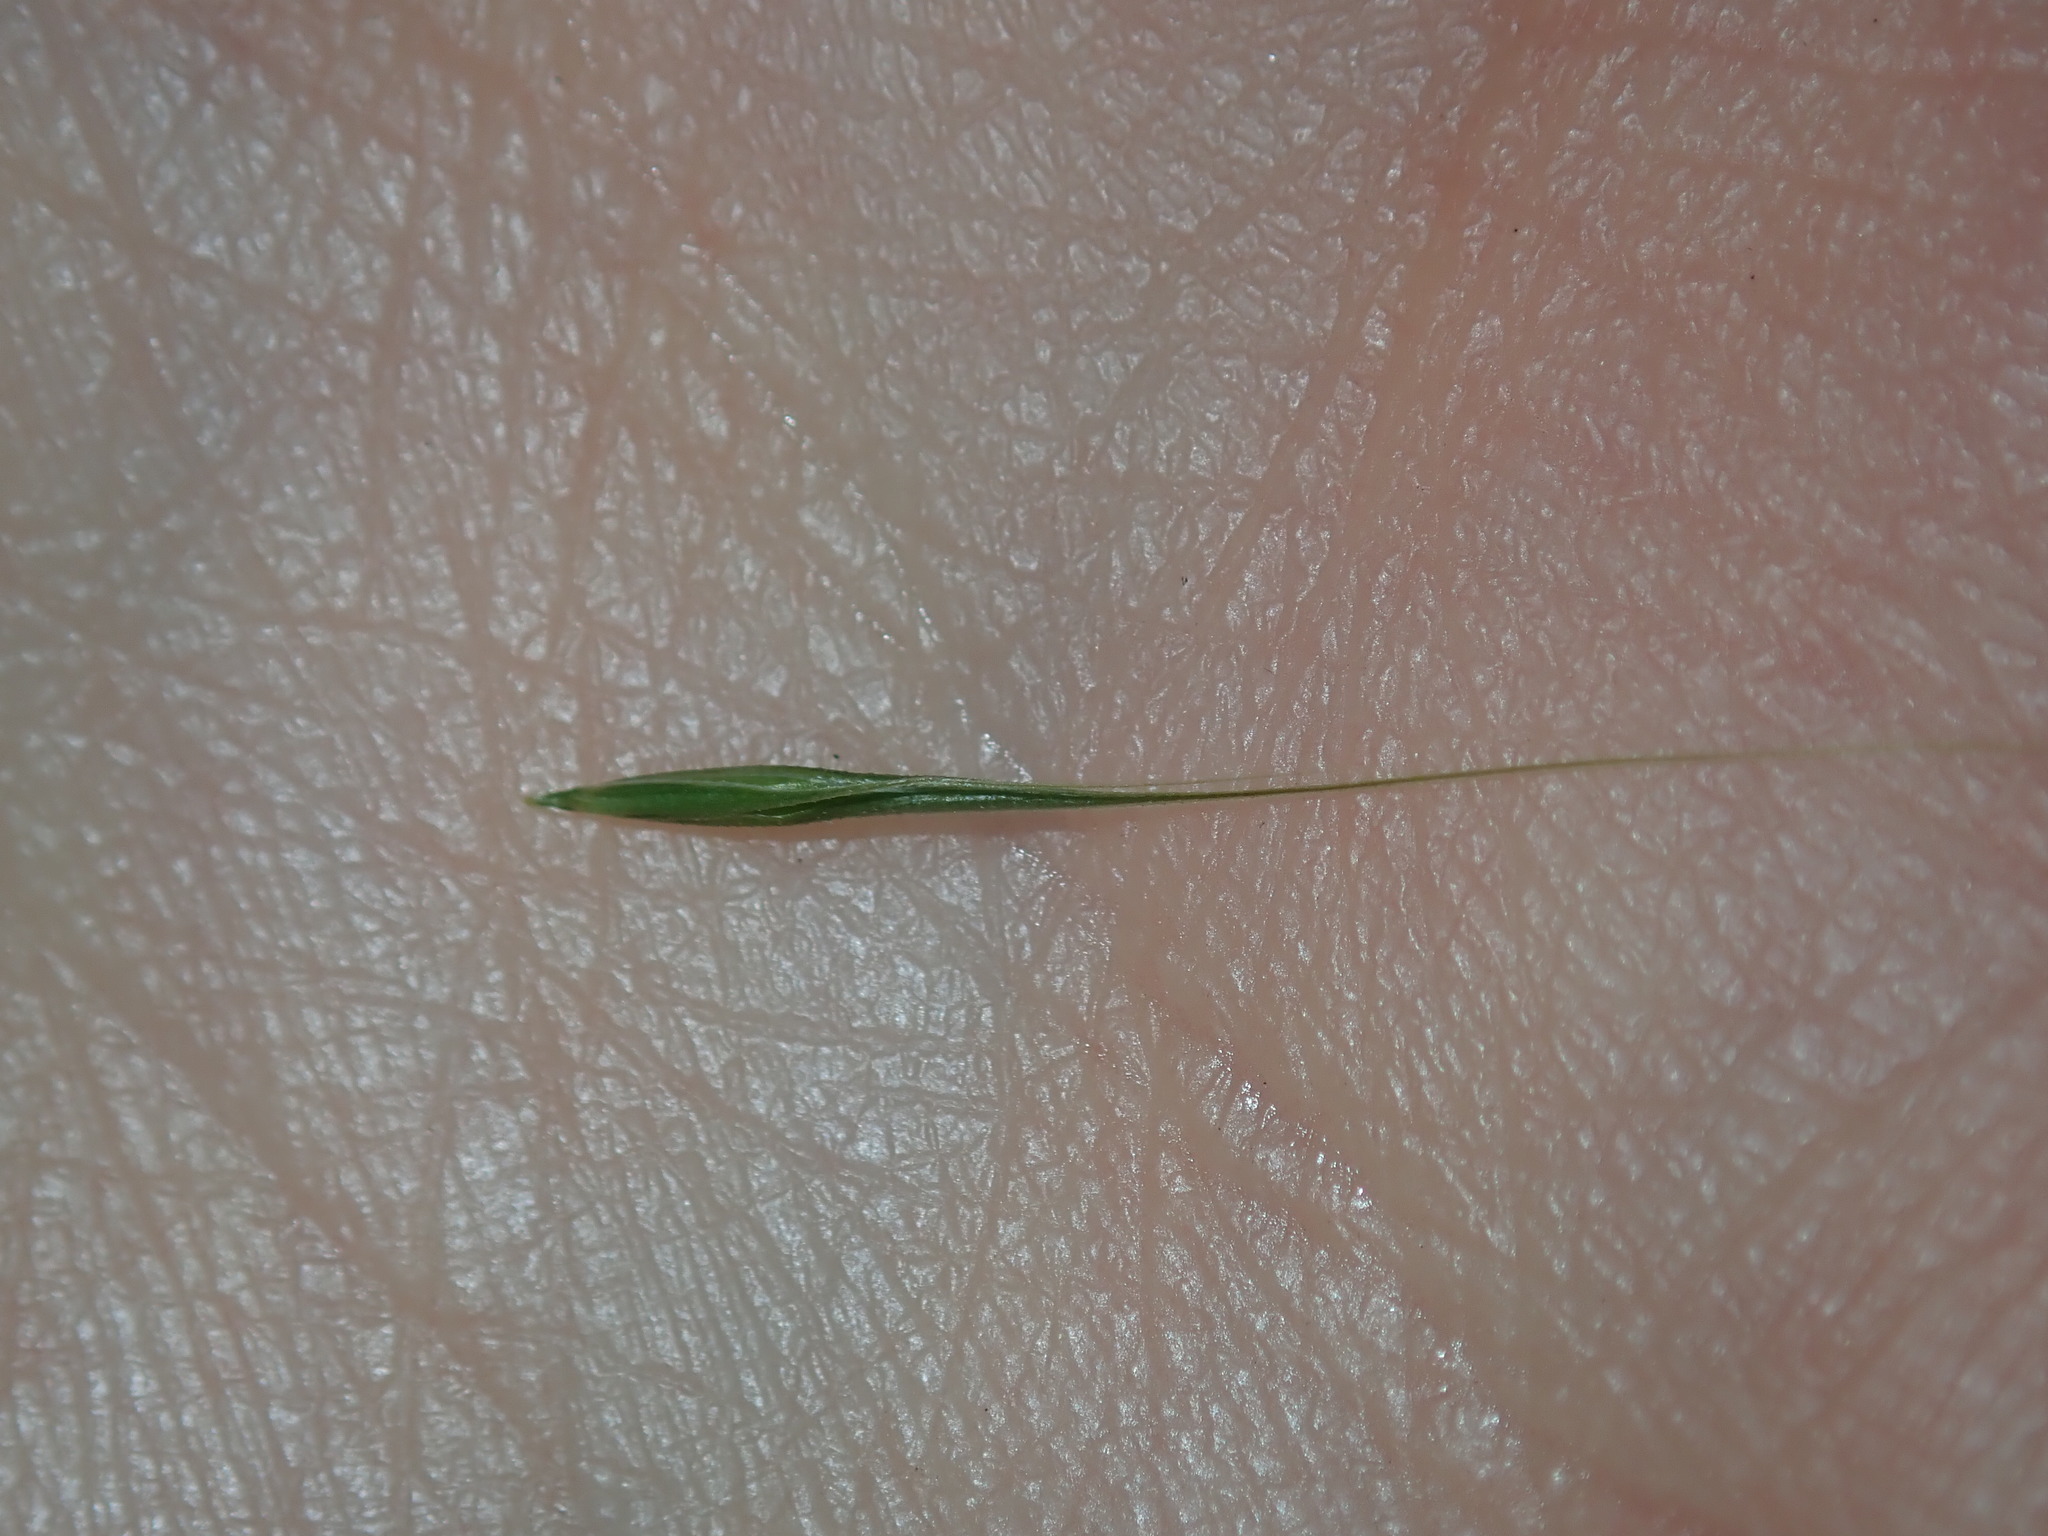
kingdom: Plantae
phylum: Tracheophyta
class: Liliopsida
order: Poales
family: Poaceae
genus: Microlaena
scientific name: Microlaena stipoides
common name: Meadow ricegrass
